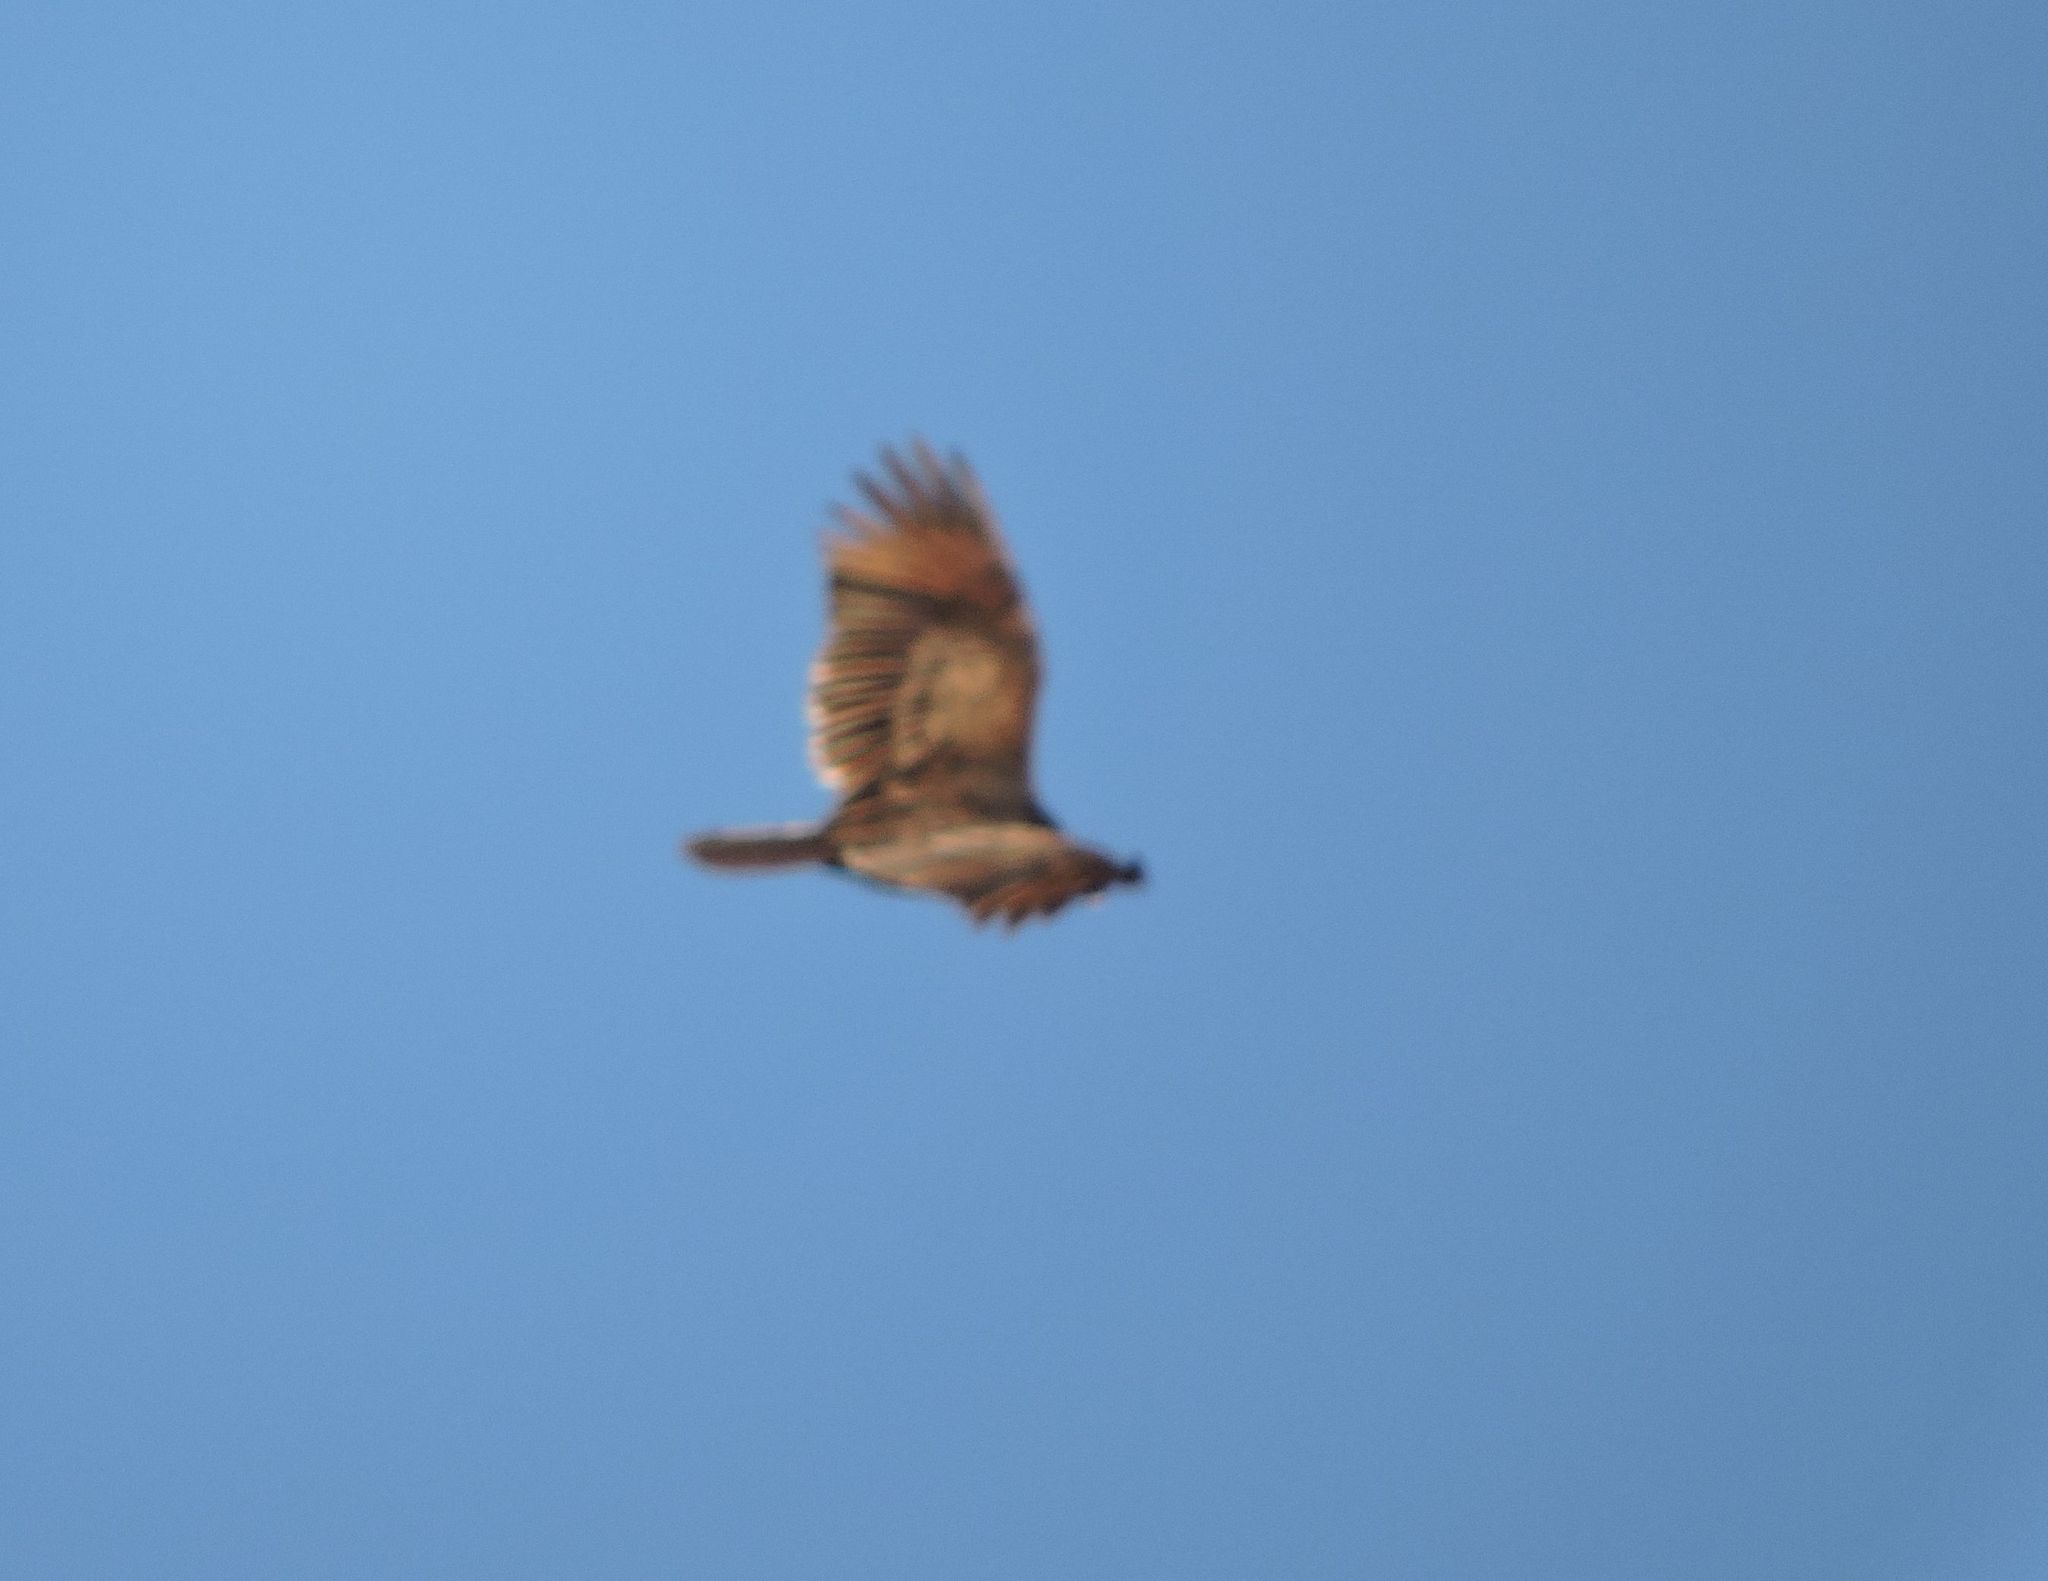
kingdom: Animalia
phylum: Chordata
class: Aves
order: Accipitriformes
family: Accipitridae
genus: Buteo
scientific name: Buteo jamaicensis
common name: Red-tailed hawk
